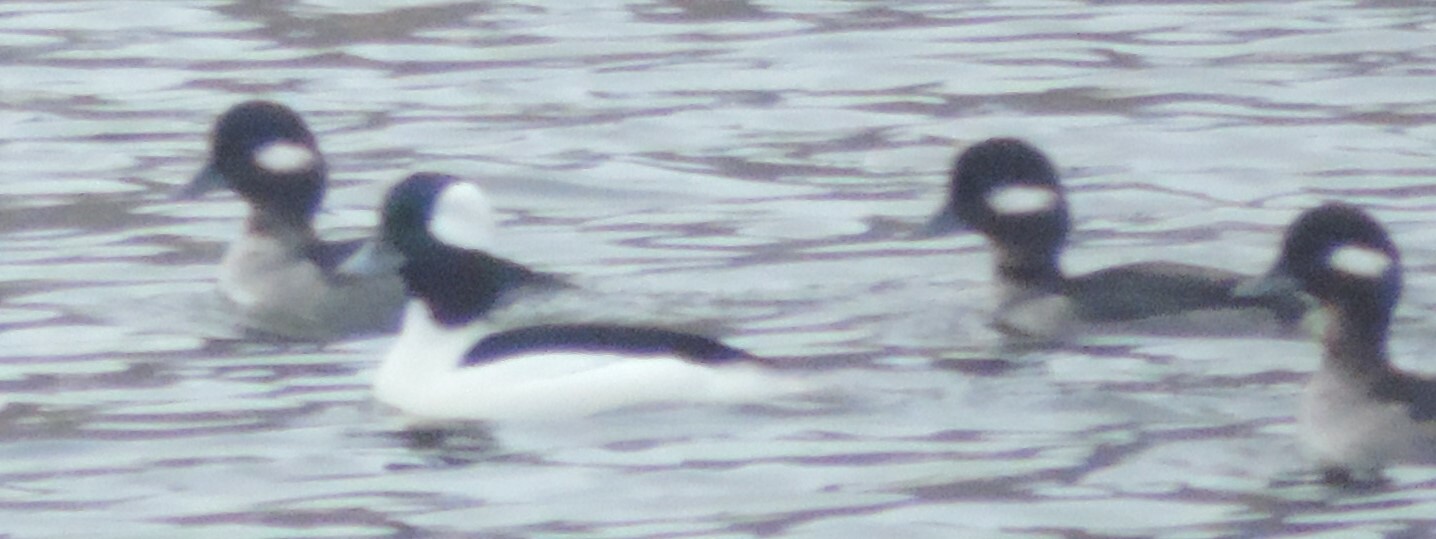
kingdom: Animalia
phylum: Chordata
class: Aves
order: Anseriformes
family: Anatidae
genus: Bucephala
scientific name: Bucephala albeola
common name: Bufflehead
